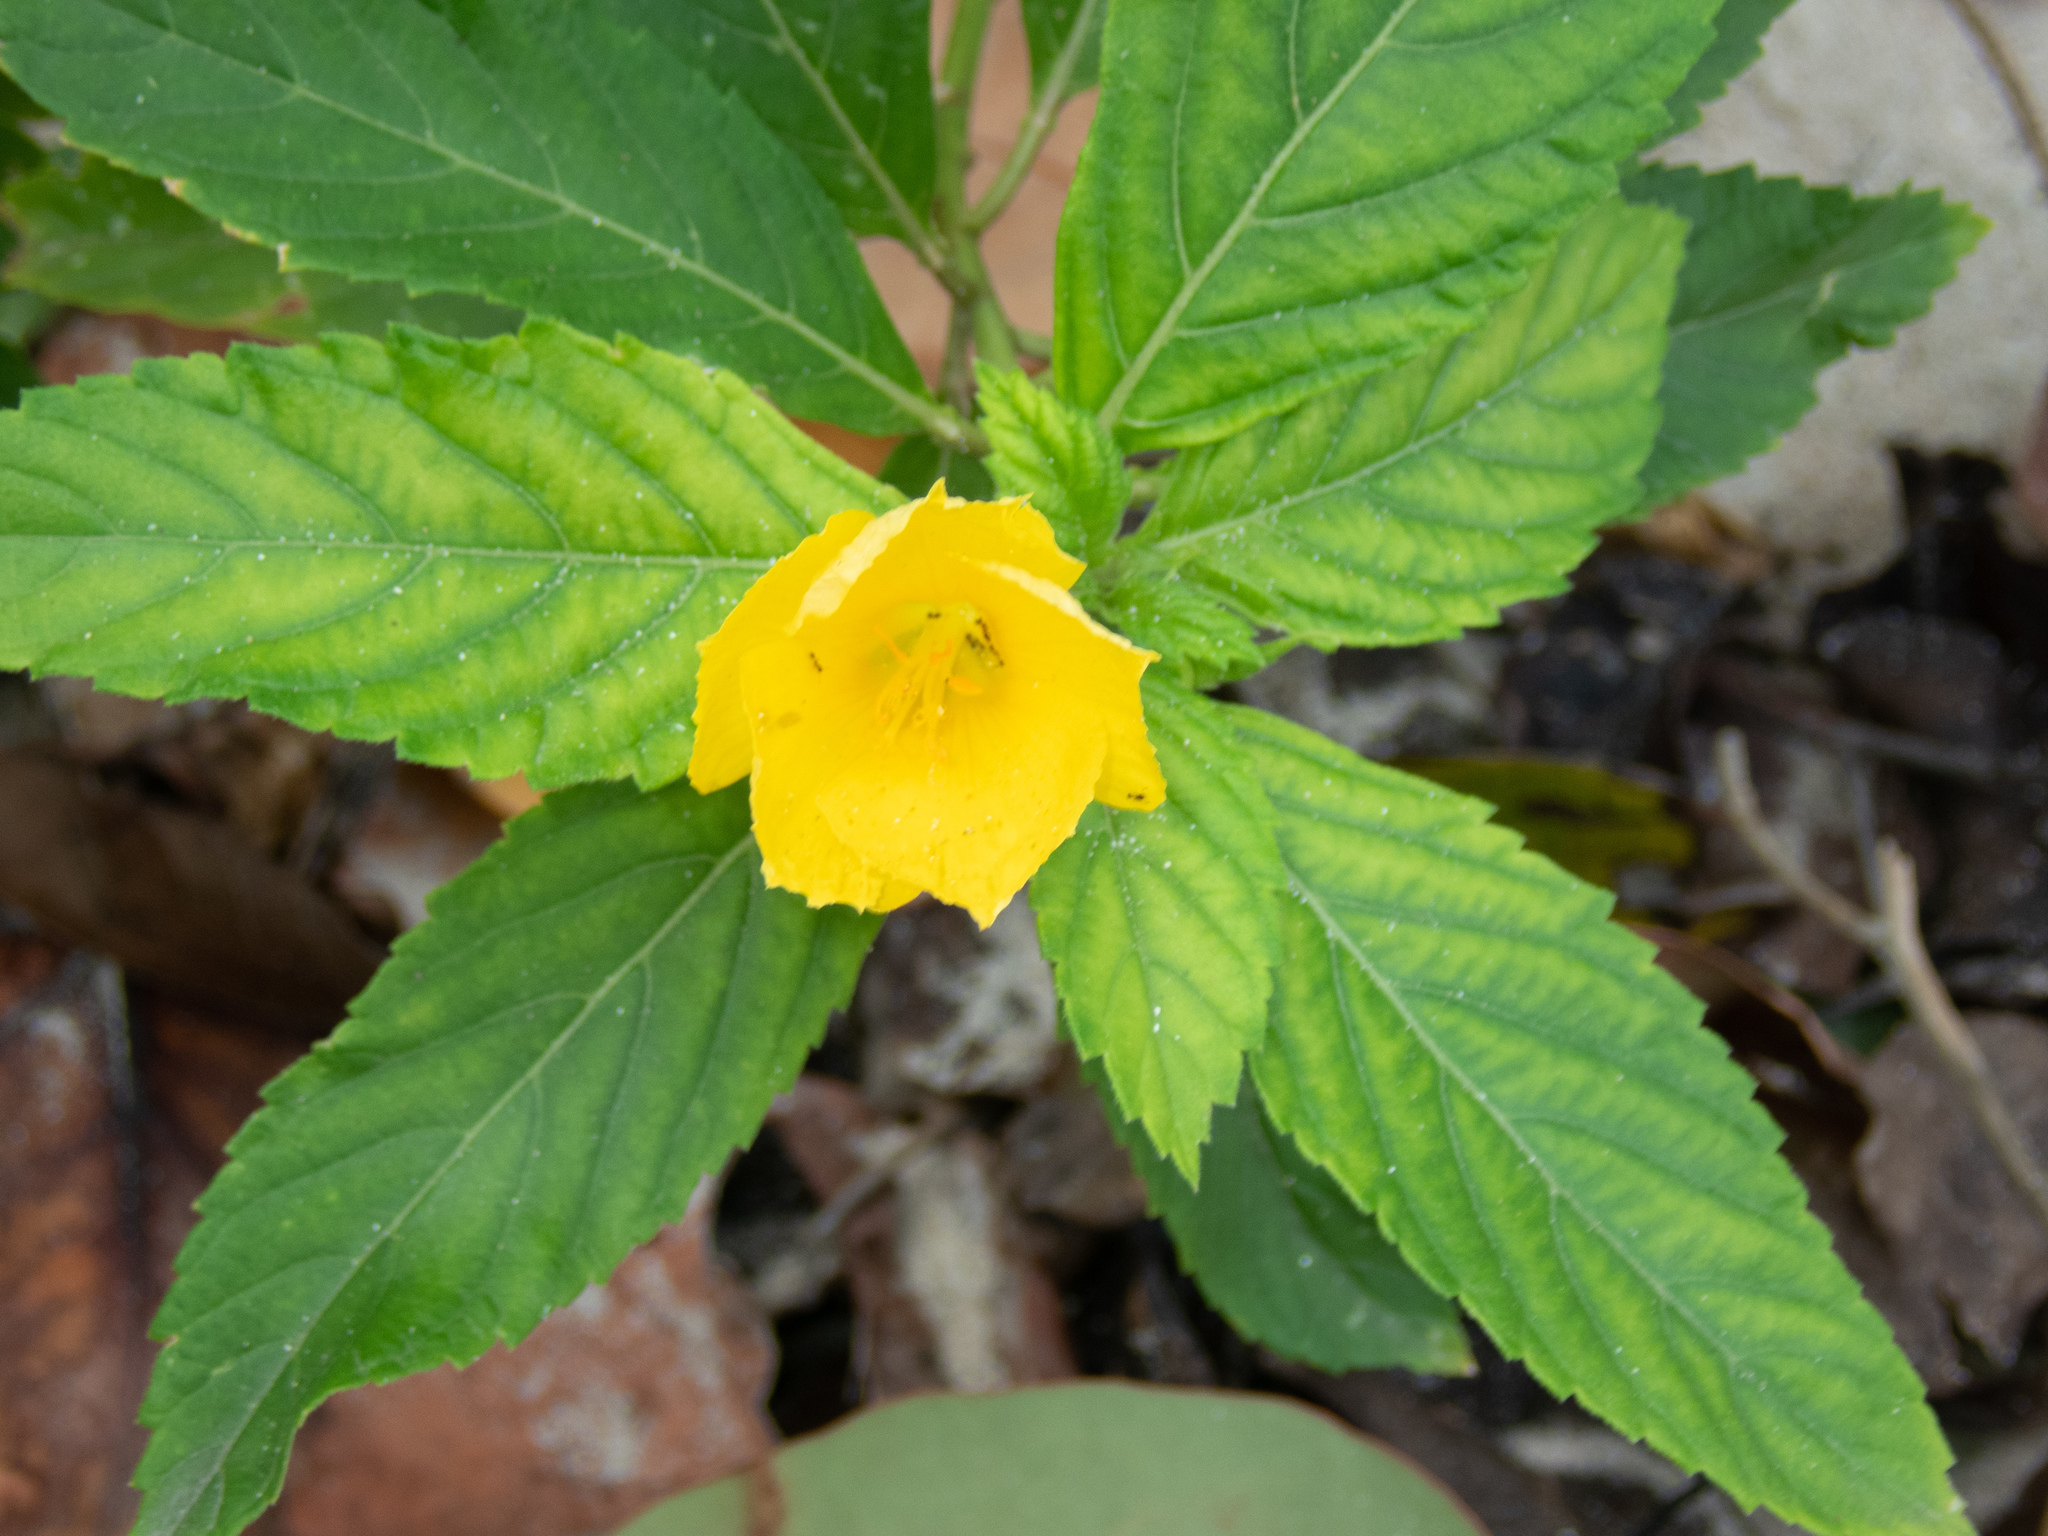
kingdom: Plantae
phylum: Tracheophyta
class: Magnoliopsida
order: Malpighiales
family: Turneraceae
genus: Turnera
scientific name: Turnera ulmifolia
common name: Ramgoat dashalong
